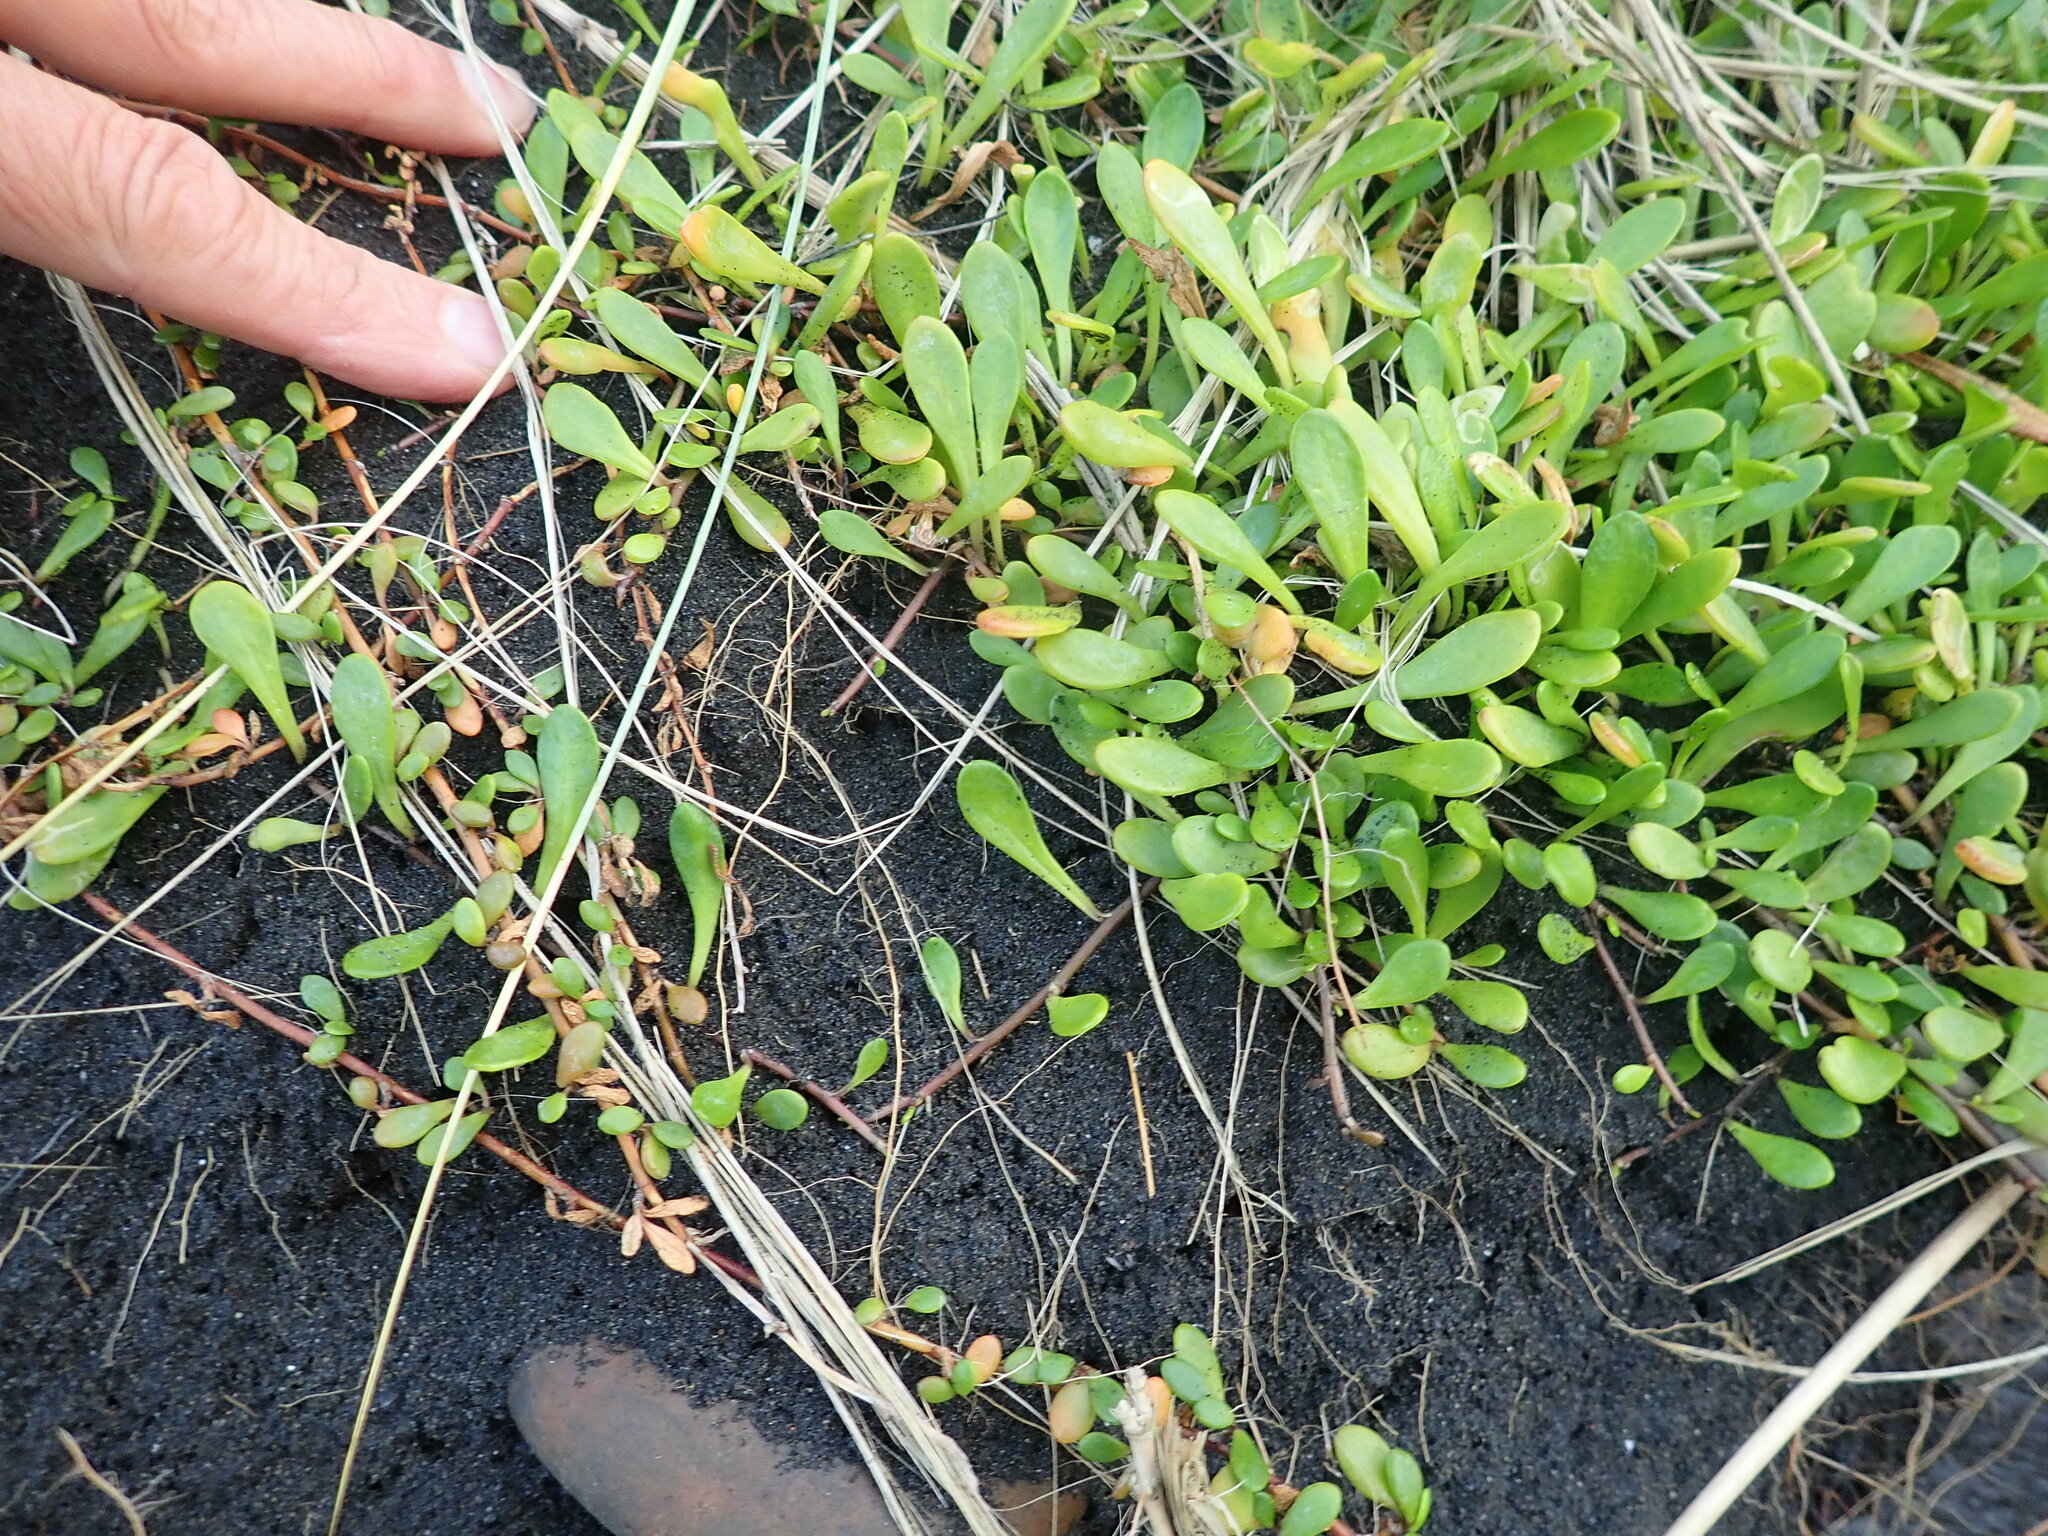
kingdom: Plantae
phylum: Tracheophyta
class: Magnoliopsida
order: Asterales
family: Goodeniaceae
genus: Goodenia
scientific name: Goodenia radicans
